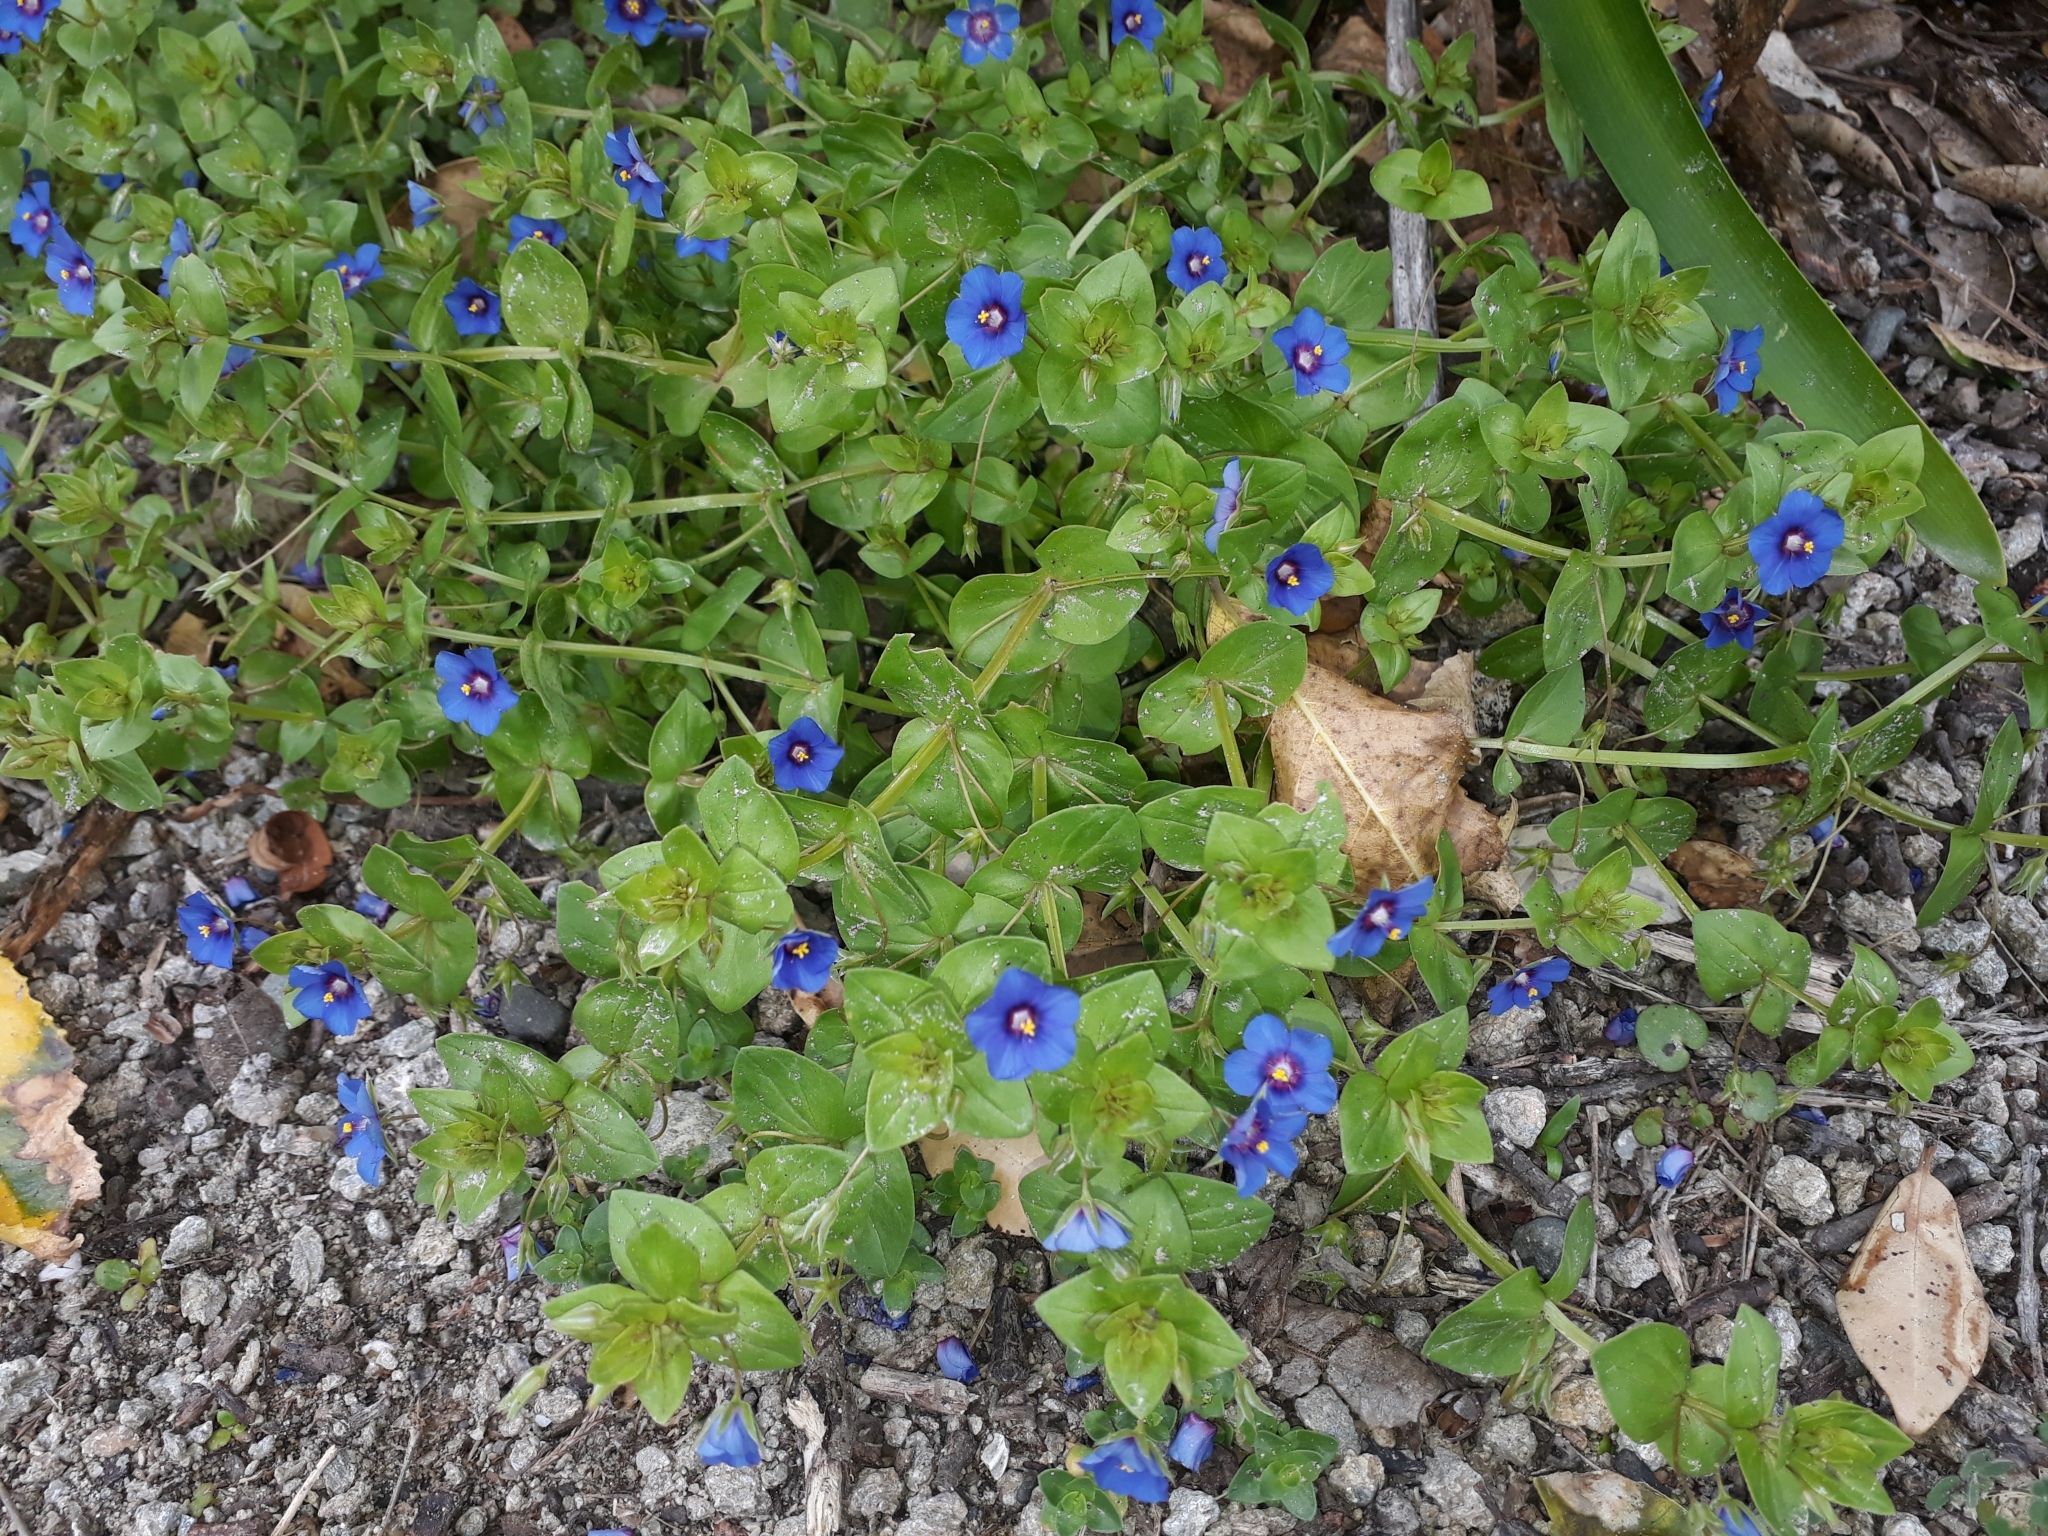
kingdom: Plantae
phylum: Tracheophyta
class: Magnoliopsida
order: Ericales
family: Primulaceae
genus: Lysimachia
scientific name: Lysimachia arvensis
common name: Scarlet pimpernel
